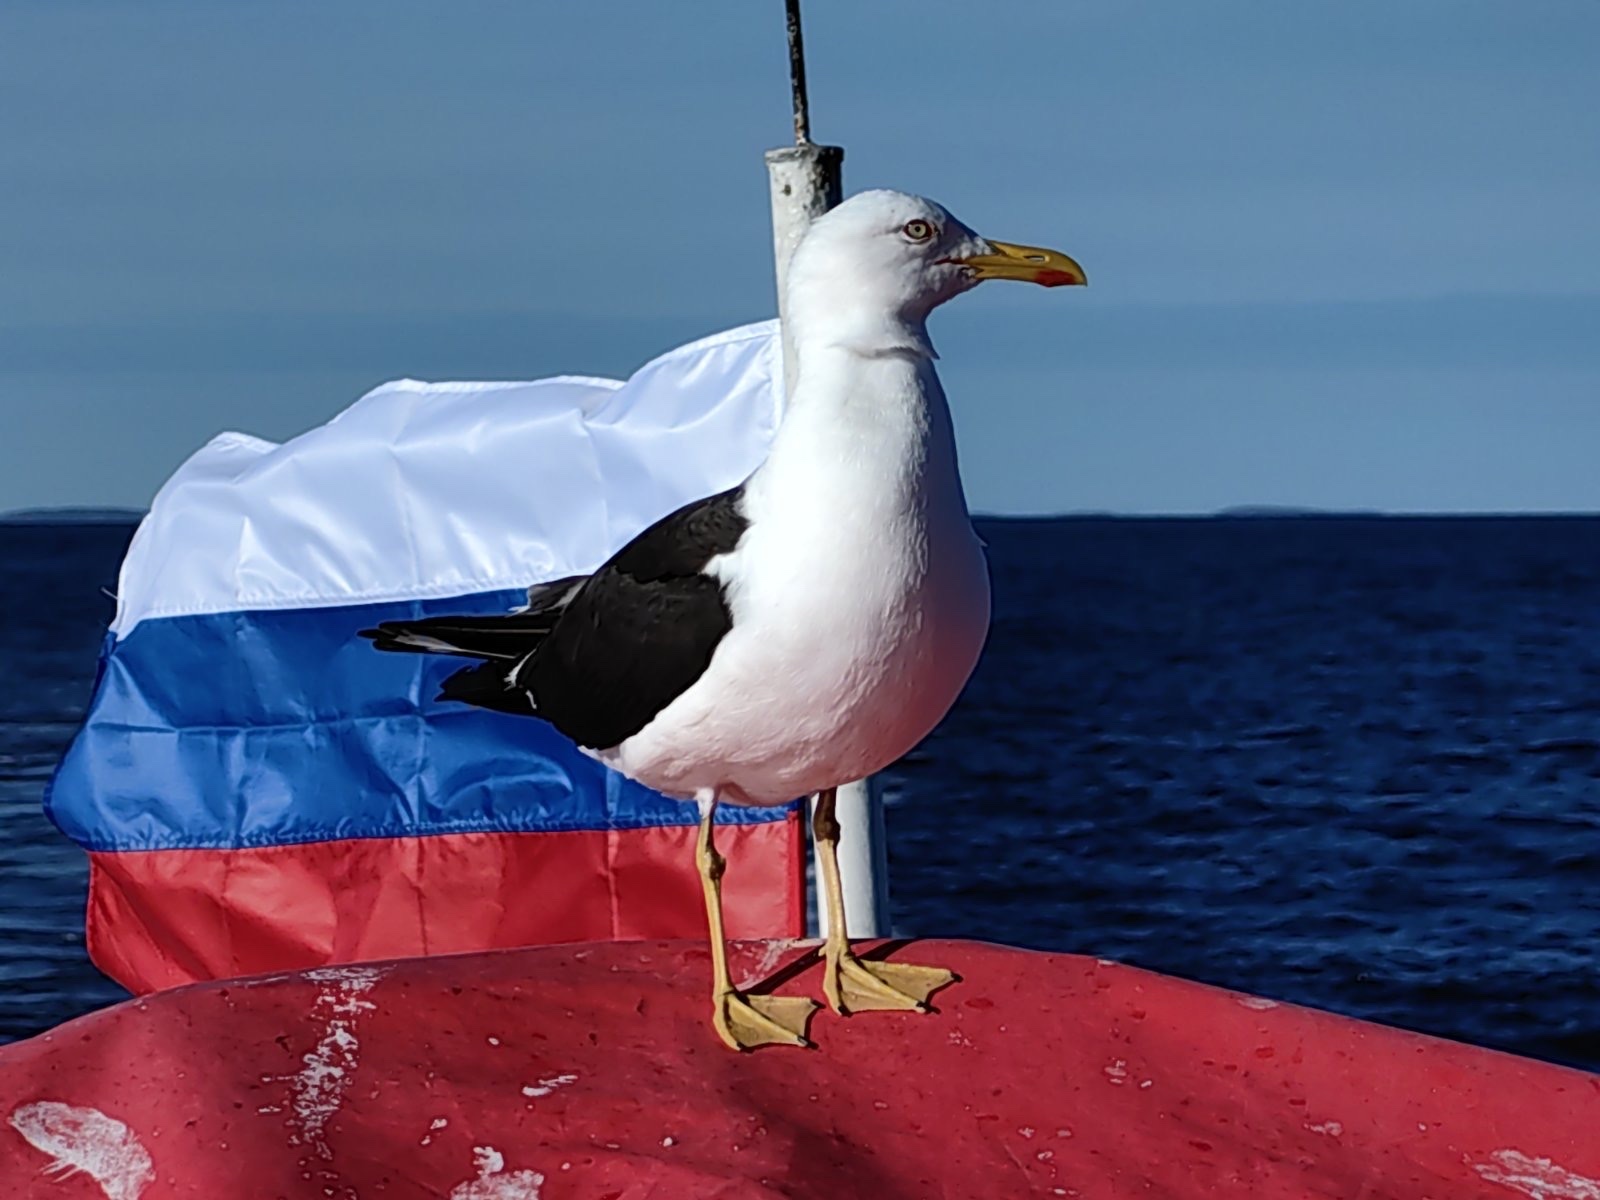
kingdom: Animalia
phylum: Chordata
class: Aves
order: Charadriiformes
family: Laridae
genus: Larus
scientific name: Larus fuscus
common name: Lesser black-backed gull
